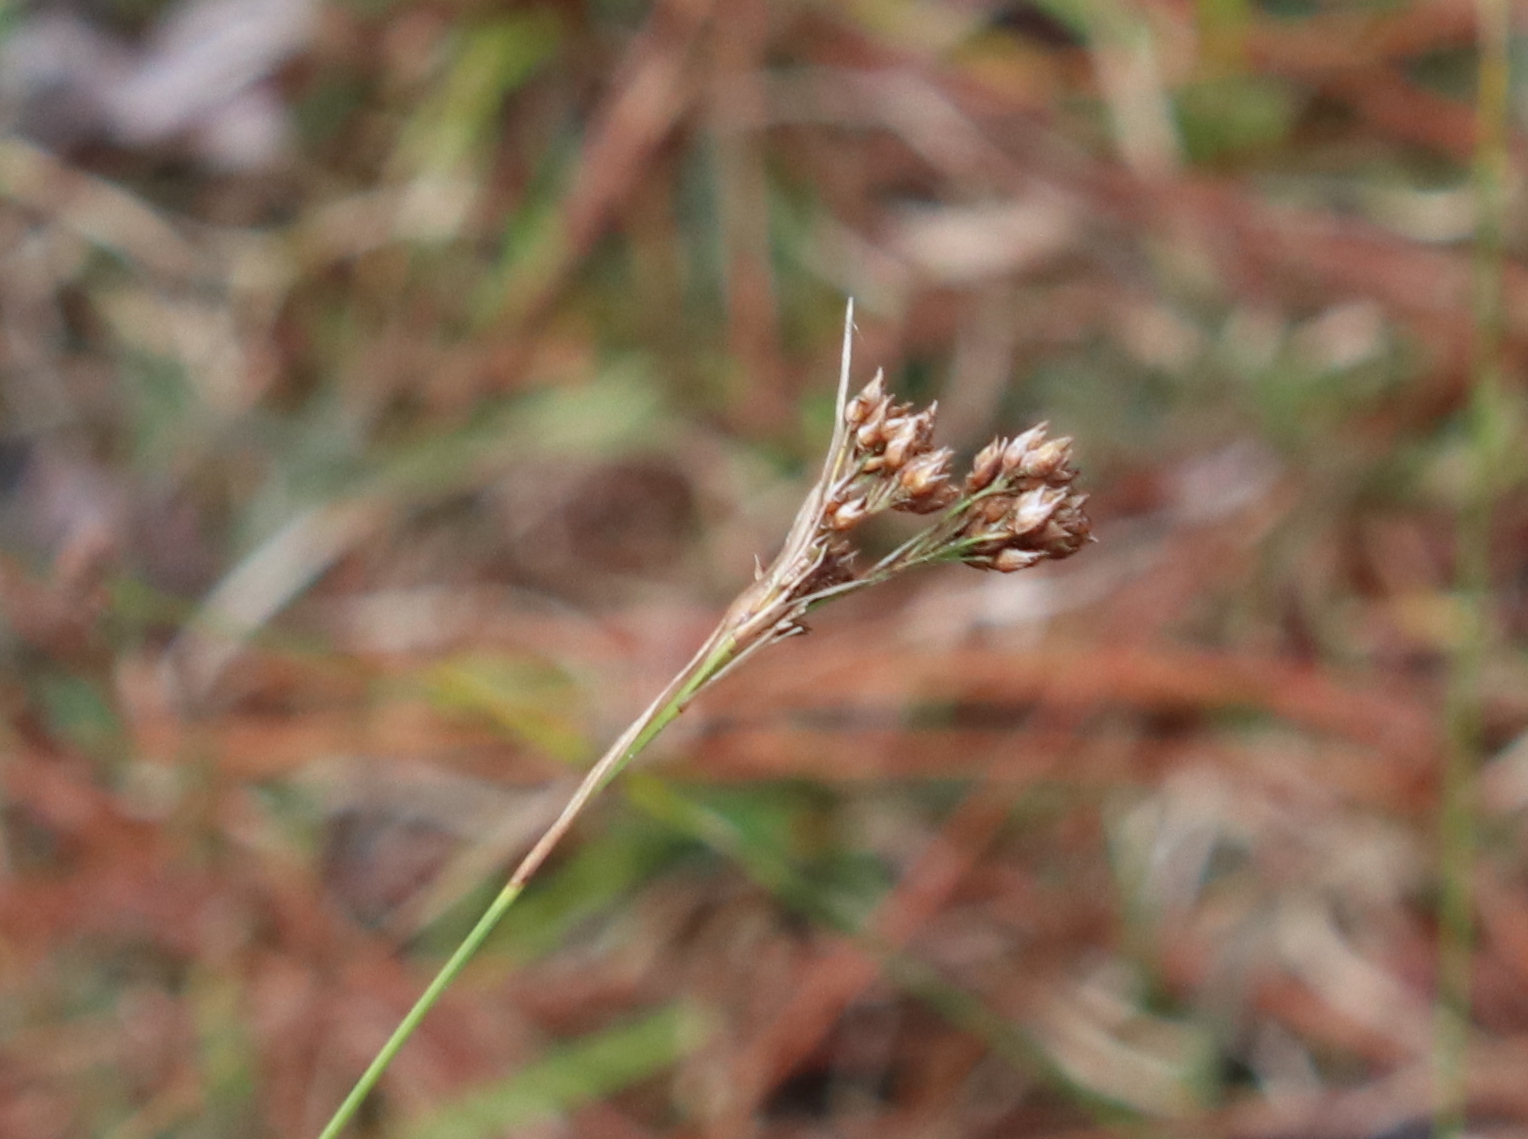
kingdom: Plantae
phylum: Tracheophyta
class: Liliopsida
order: Poales
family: Cyperaceae
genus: Rhynchospora
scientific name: Rhynchospora baldwinii
